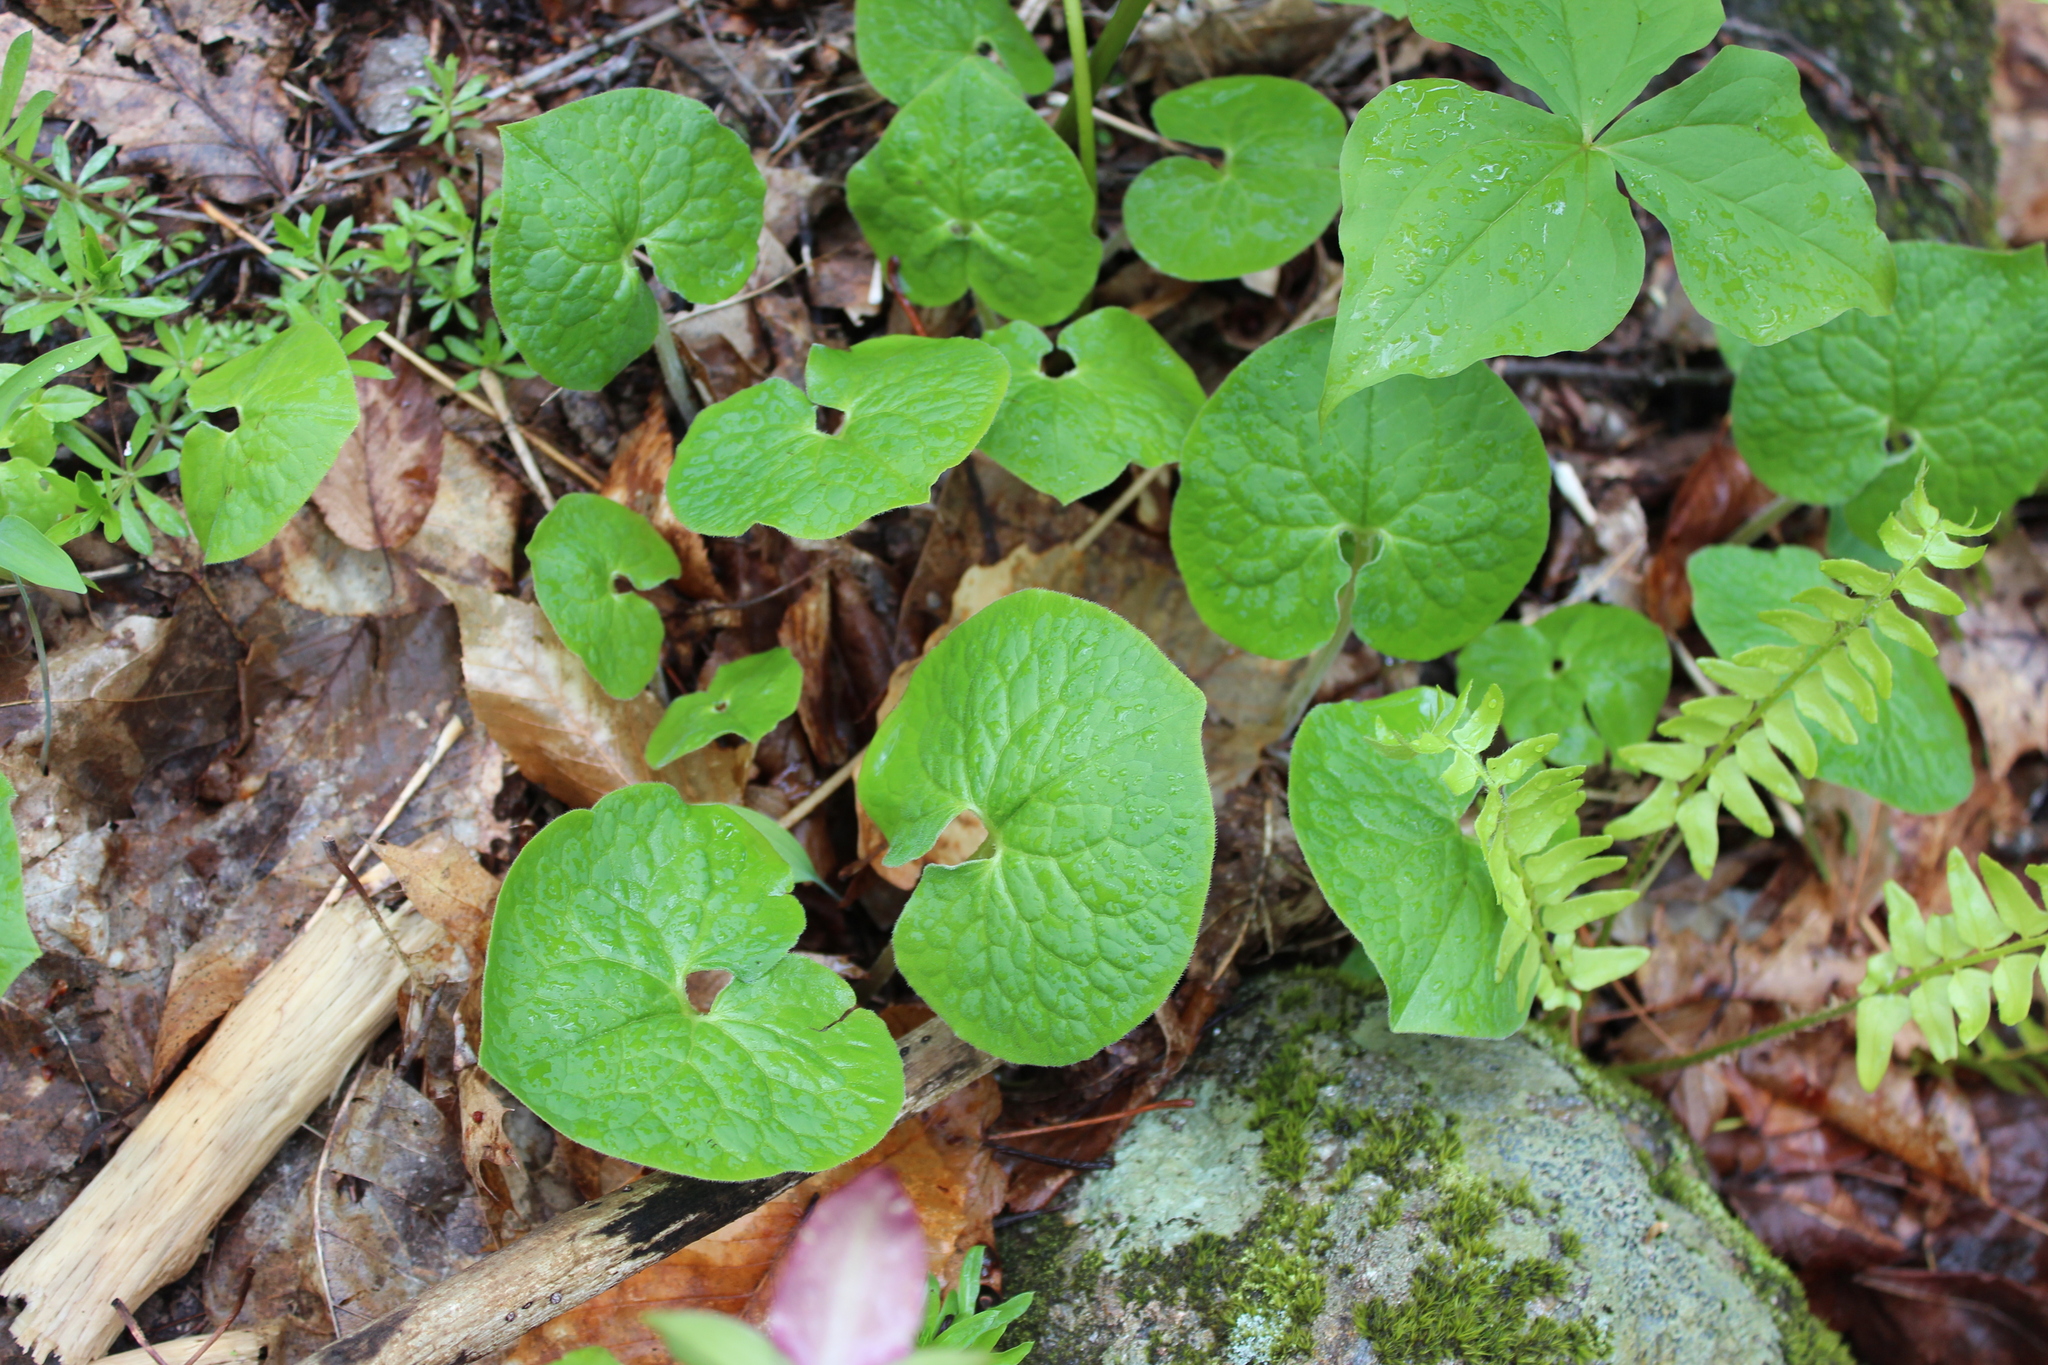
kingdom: Plantae
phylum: Tracheophyta
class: Magnoliopsida
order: Piperales
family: Aristolochiaceae
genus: Asarum
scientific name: Asarum canadense
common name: Wild ginger
